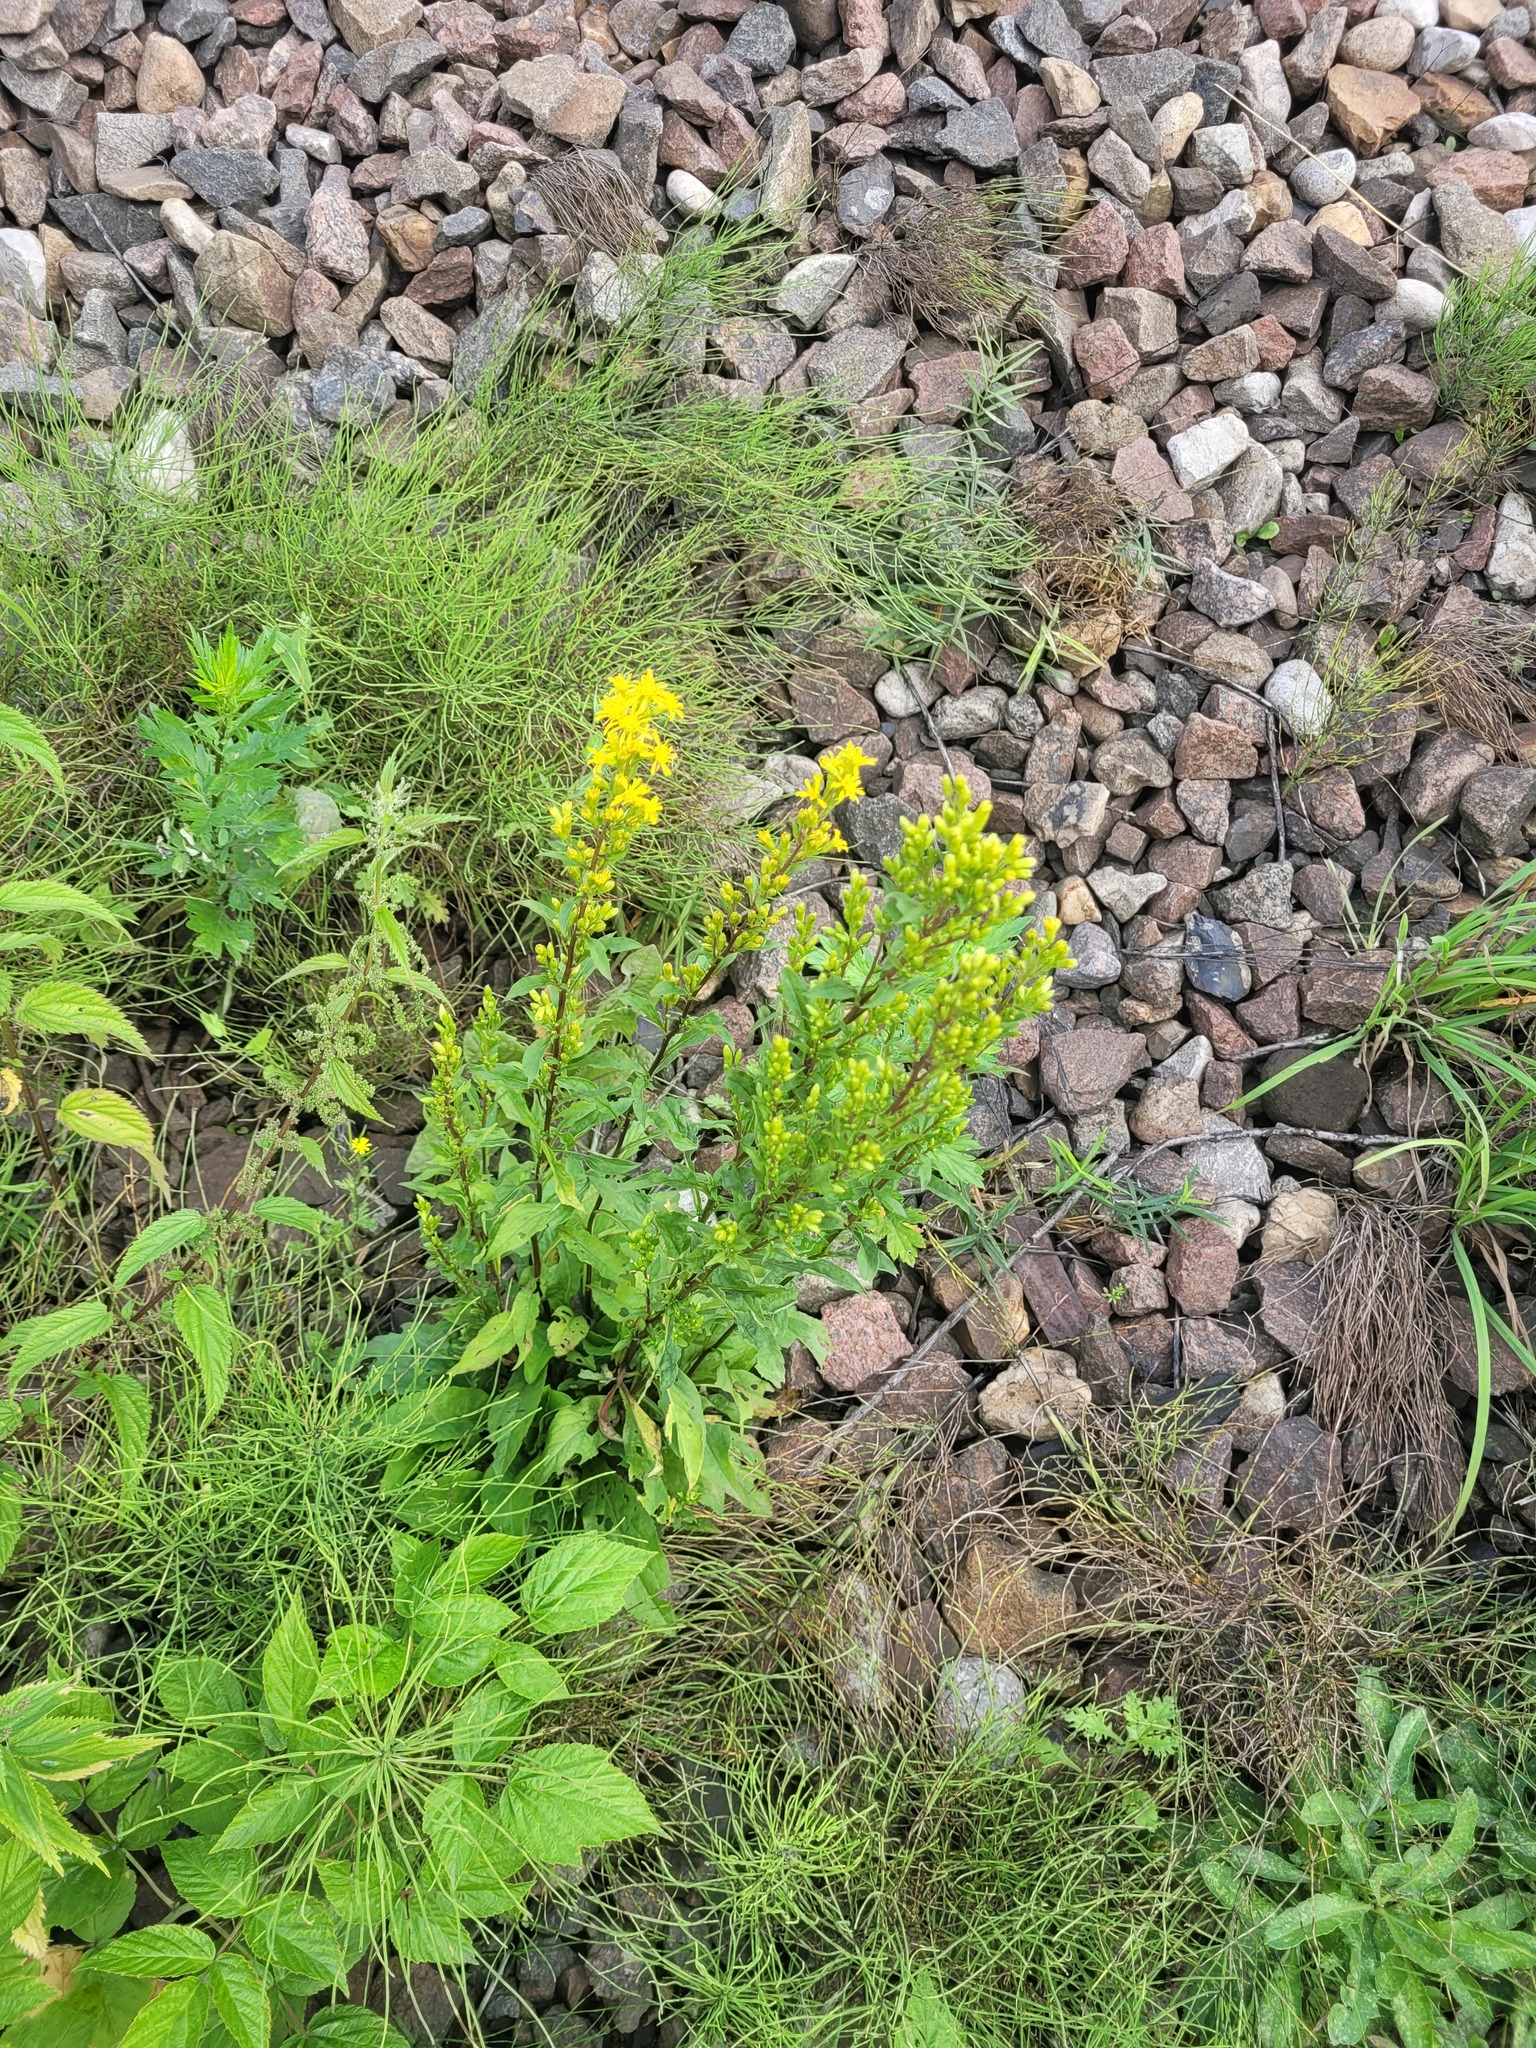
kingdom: Plantae
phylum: Tracheophyta
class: Magnoliopsida
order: Asterales
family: Asteraceae
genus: Solidago
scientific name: Solidago virgaurea
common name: Goldenrod
